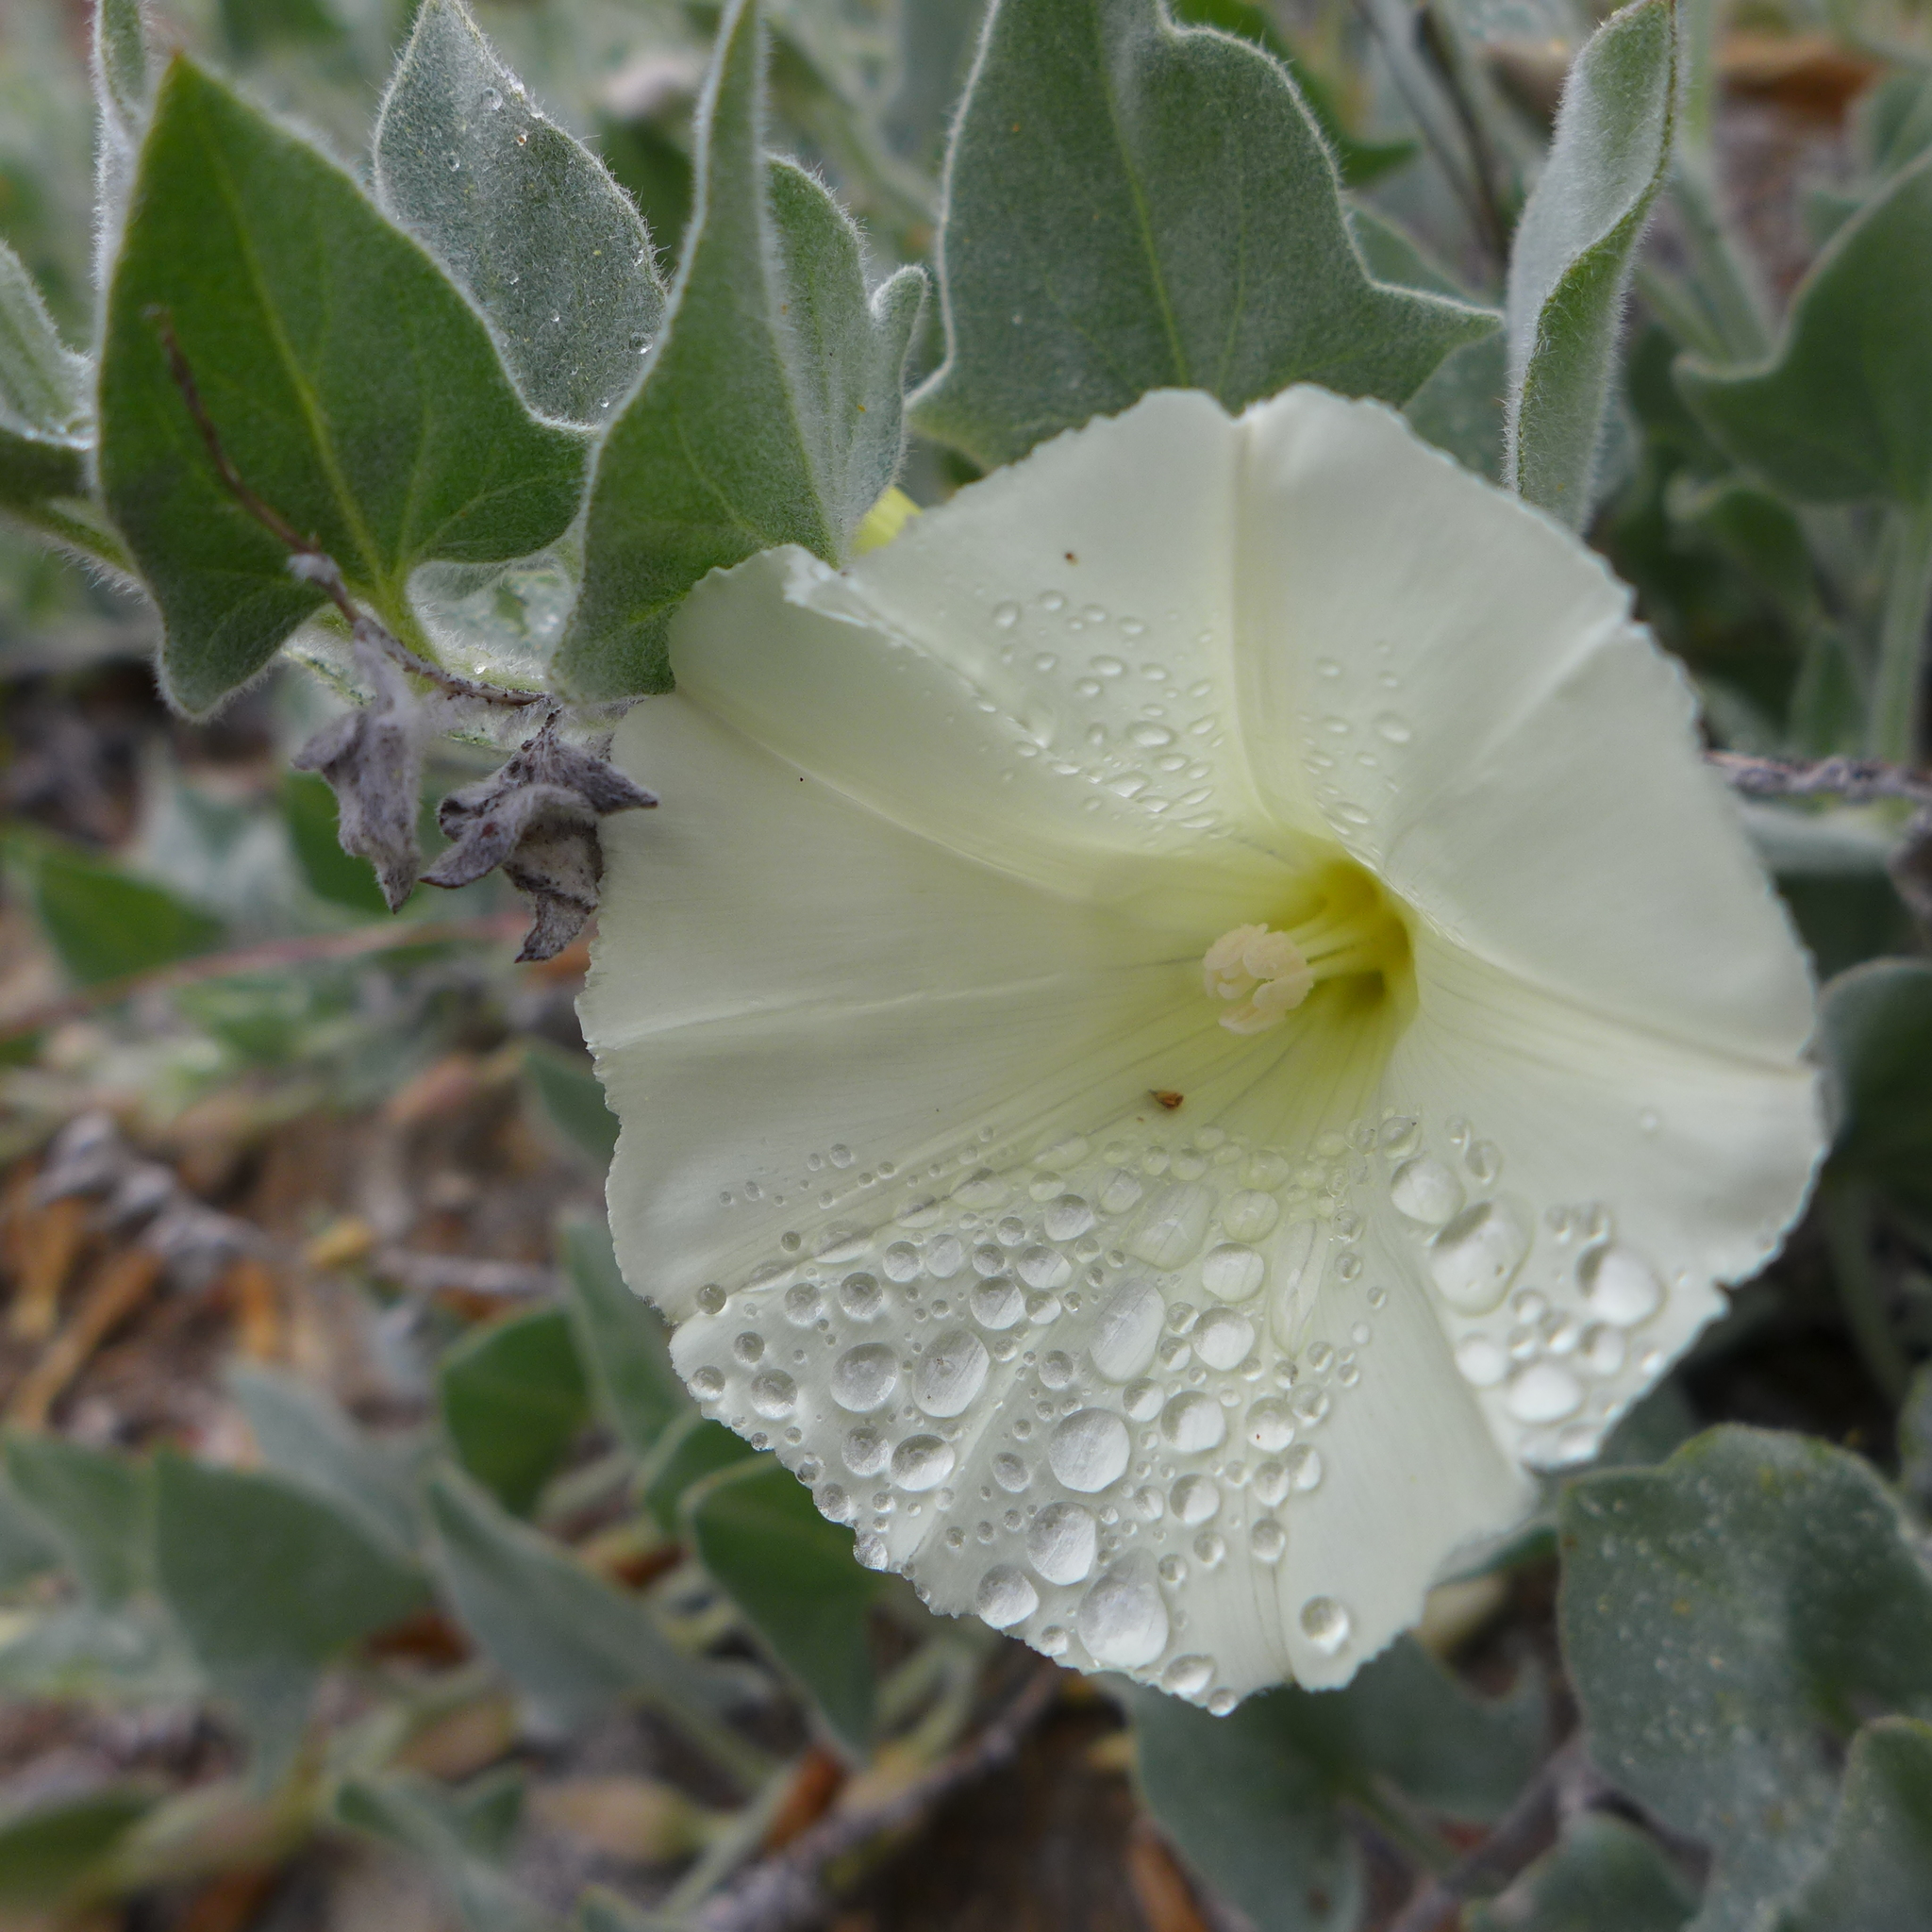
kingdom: Plantae
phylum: Tracheophyta
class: Magnoliopsida
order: Solanales
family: Convolvulaceae
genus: Calystegia
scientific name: Calystegia malacophylla
